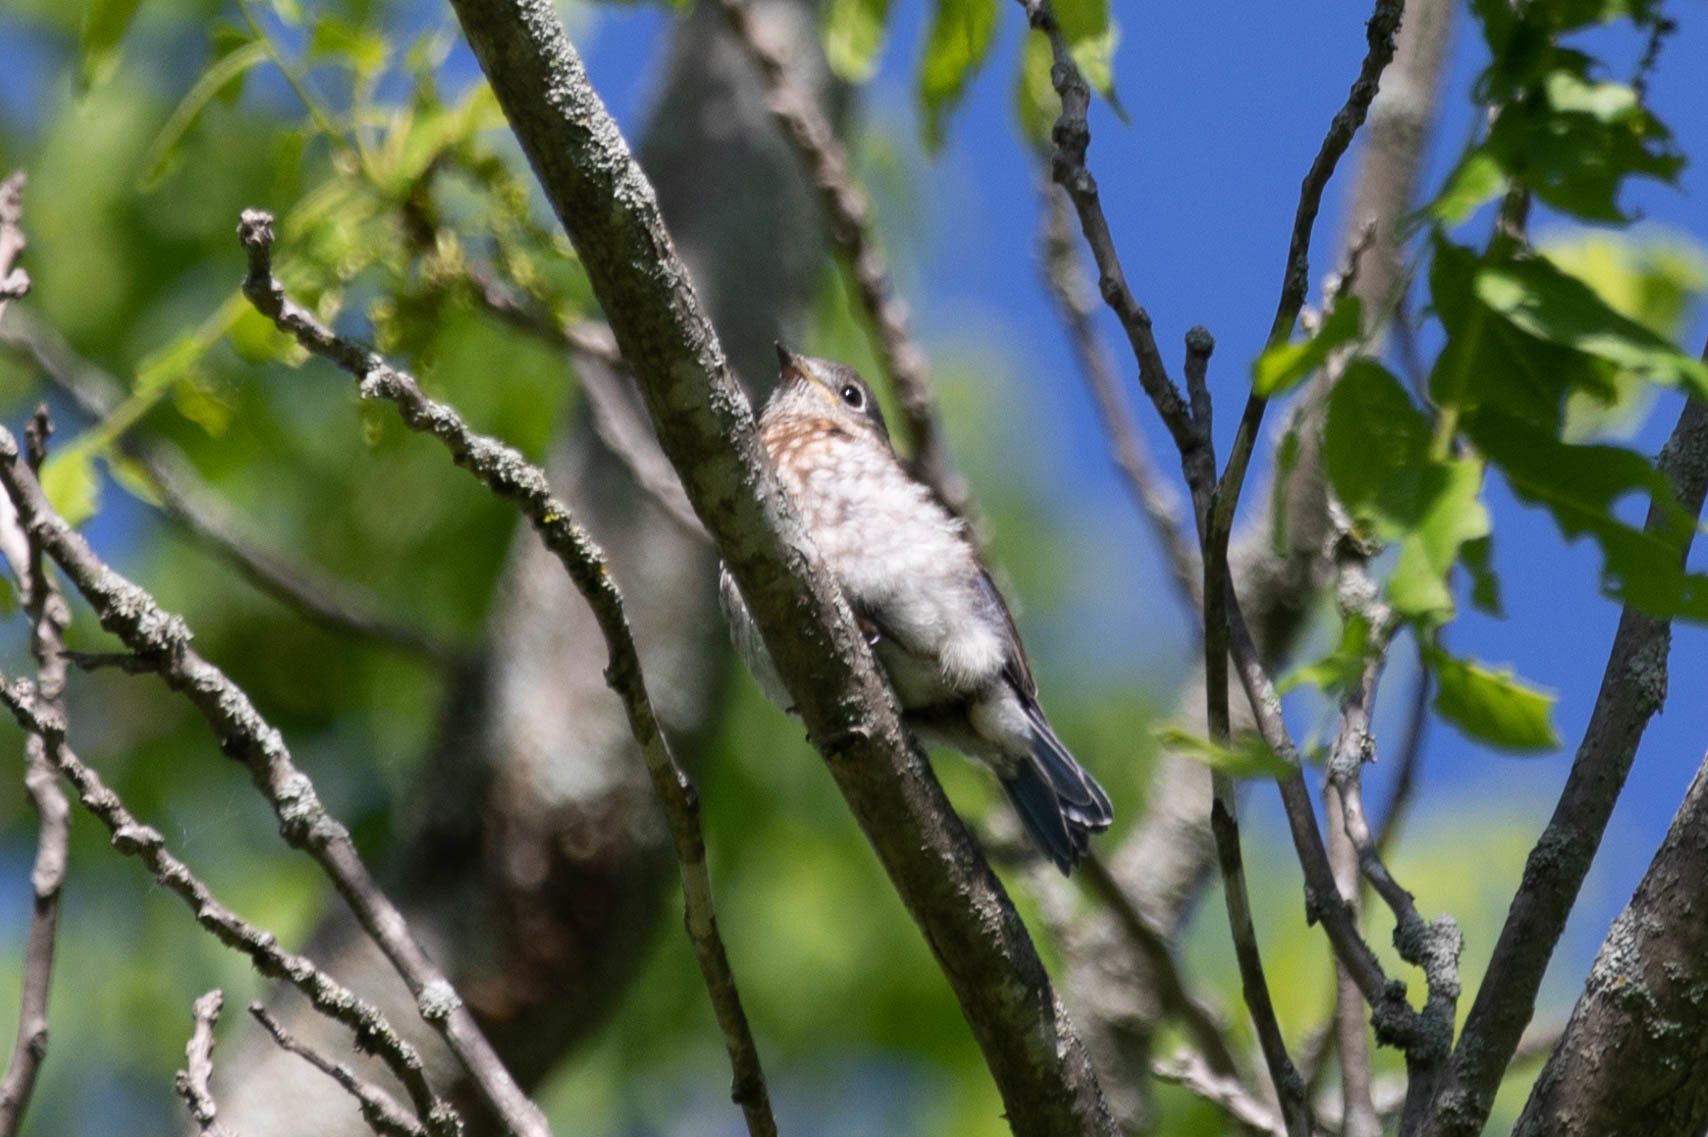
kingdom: Animalia
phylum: Chordata
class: Aves
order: Passeriformes
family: Turdidae
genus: Sialia
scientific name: Sialia sialis
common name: Eastern bluebird
